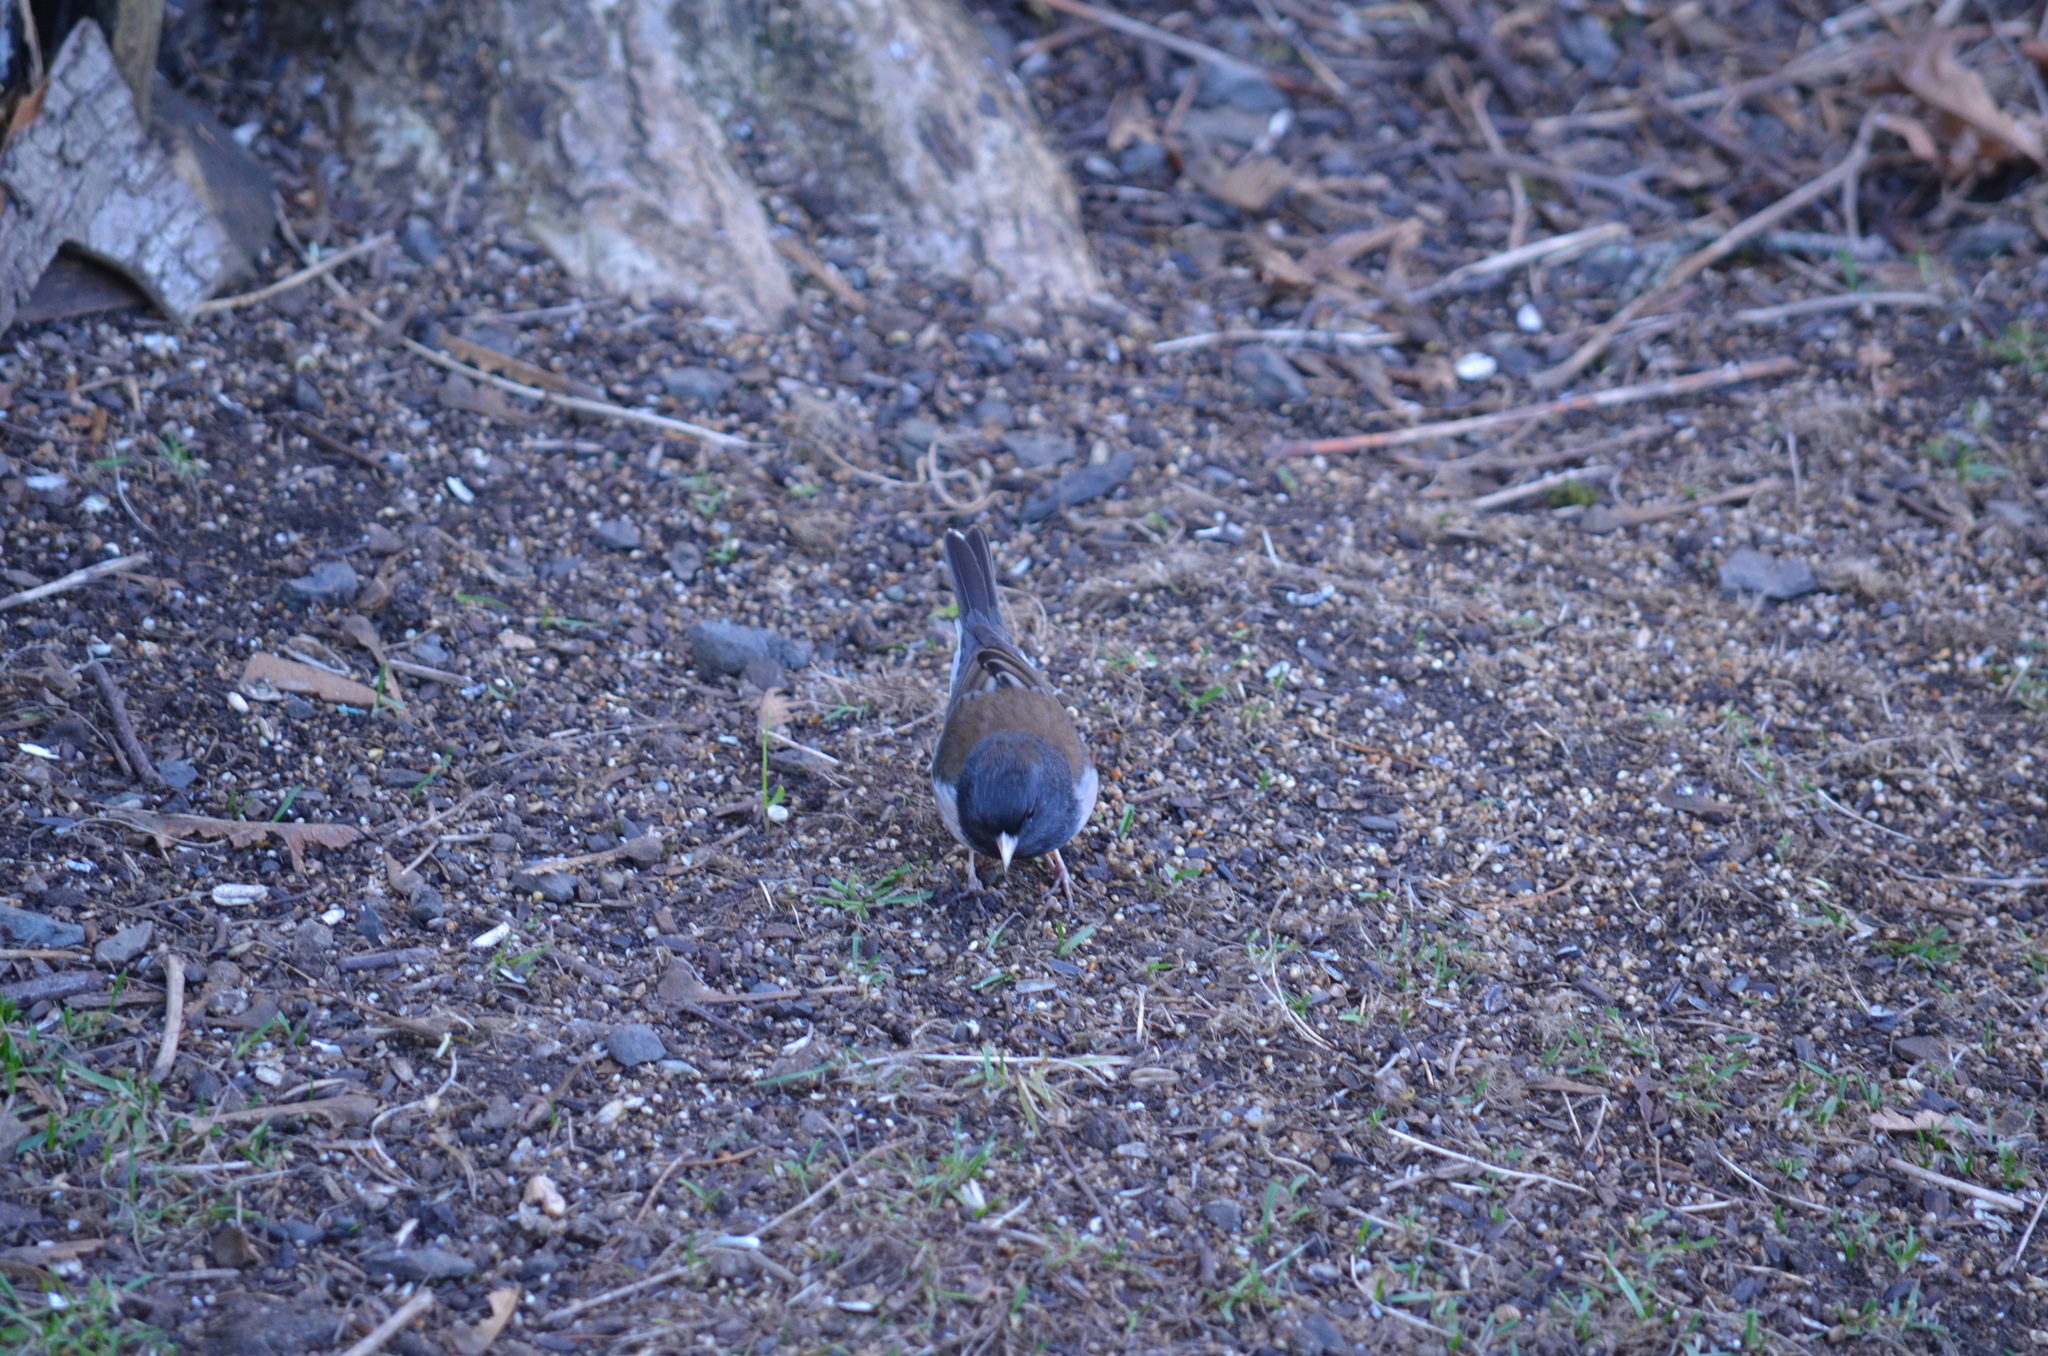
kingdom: Animalia
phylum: Chordata
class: Aves
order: Passeriformes
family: Passerellidae
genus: Junco
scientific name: Junco hyemalis
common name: Dark-eyed junco
